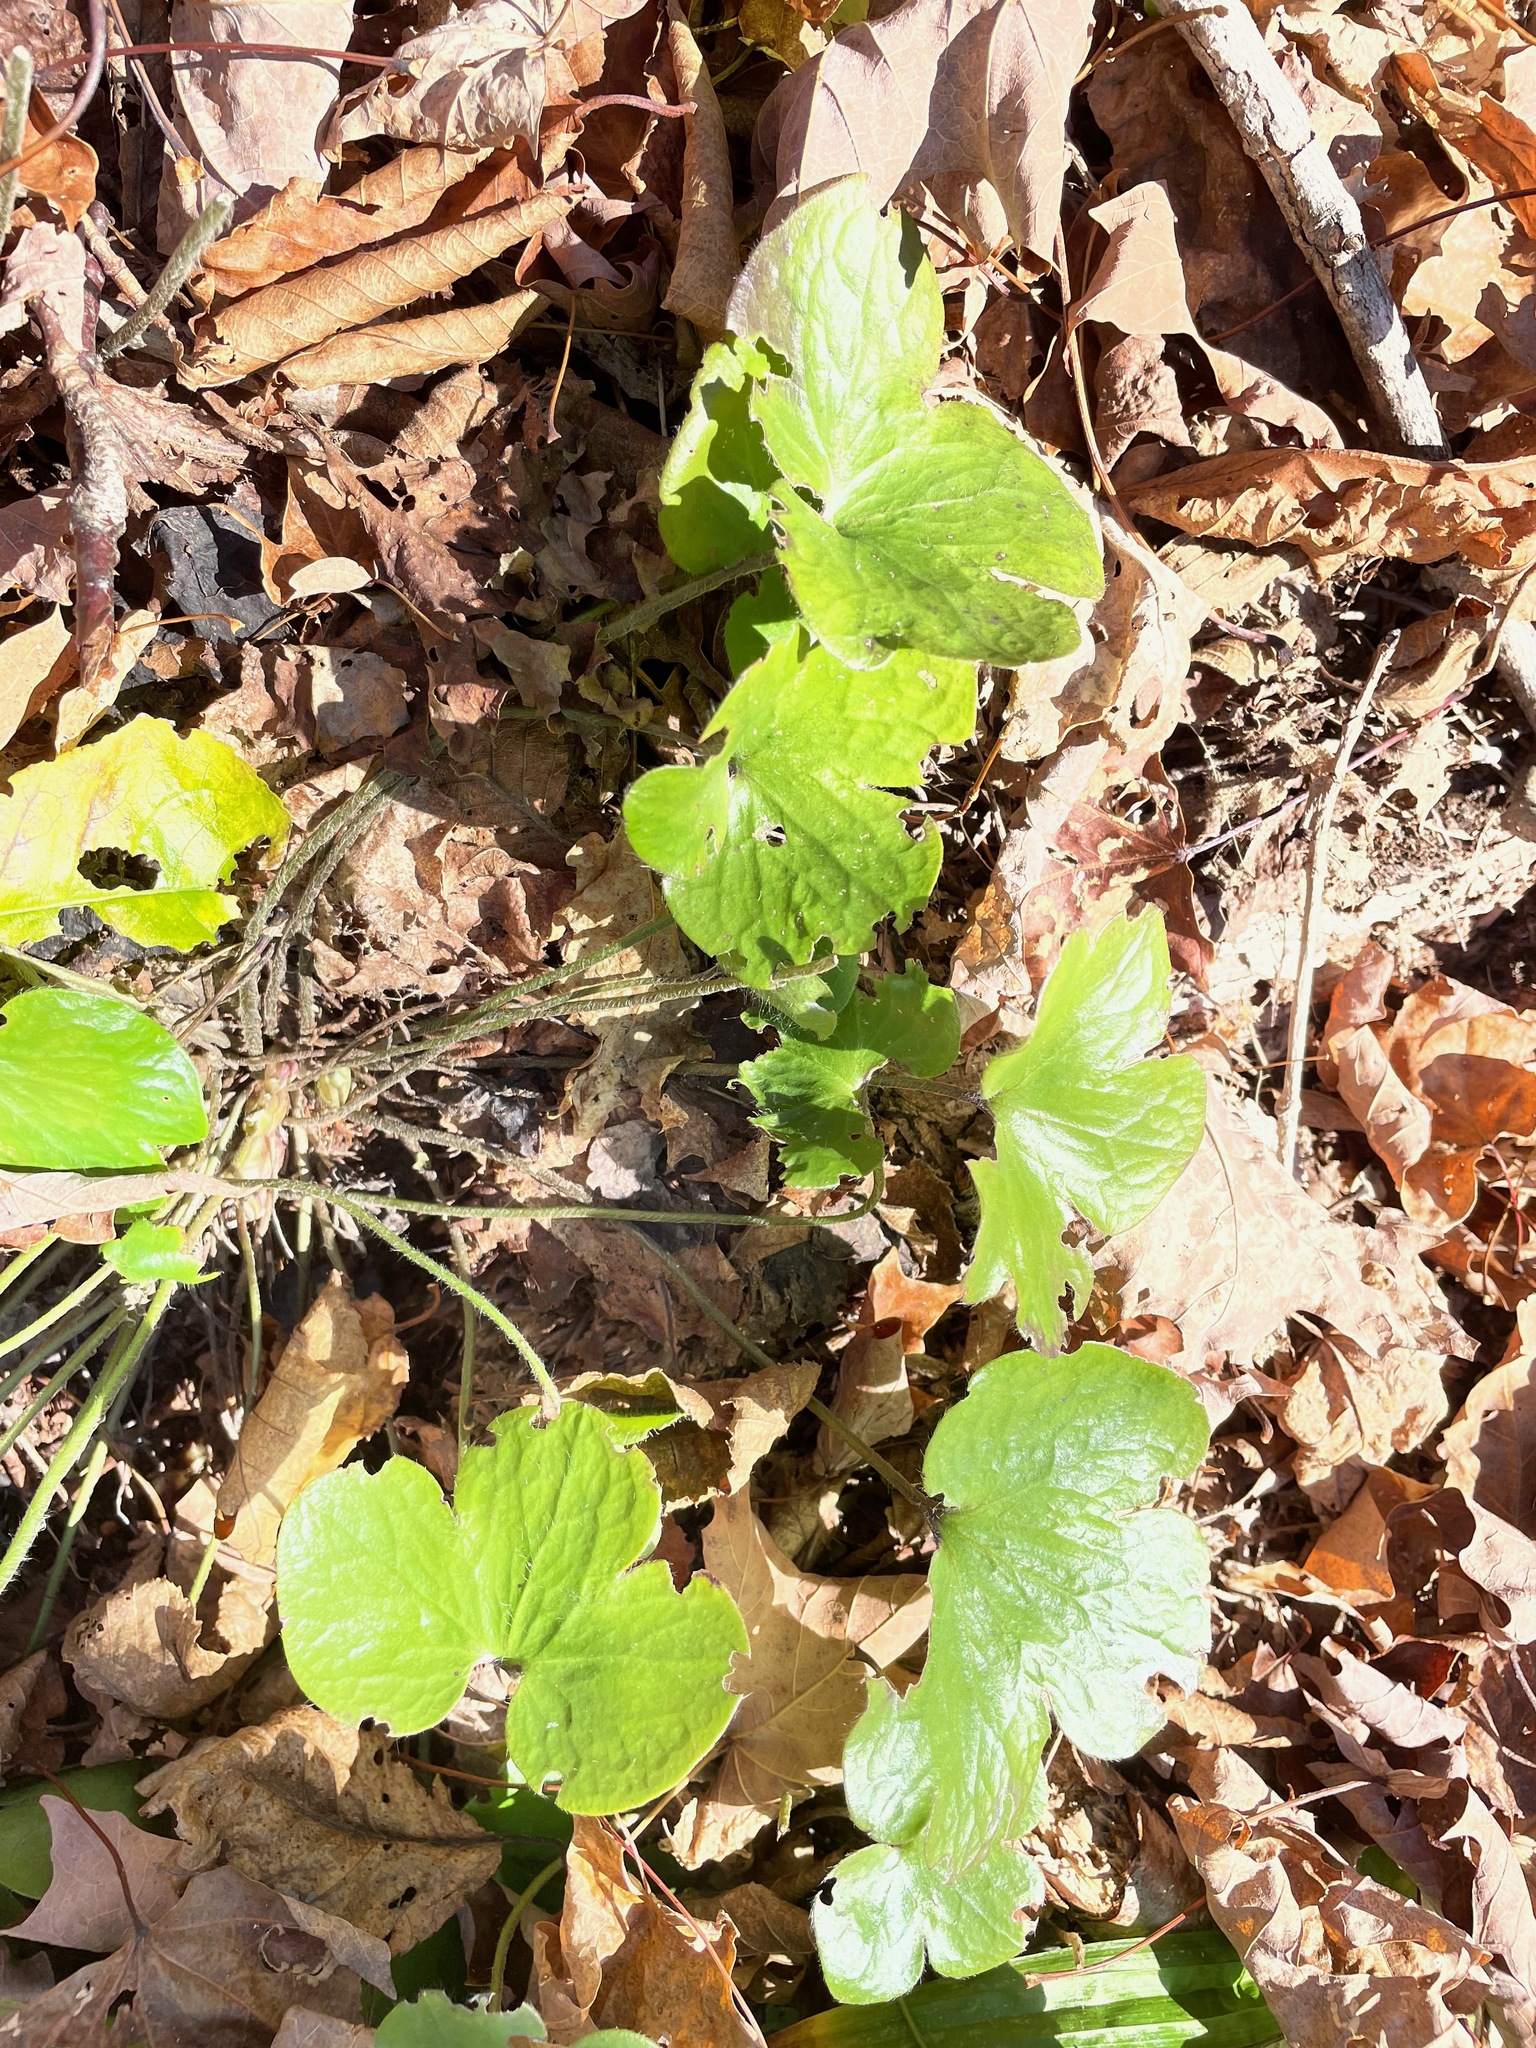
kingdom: Plantae
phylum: Tracheophyta
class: Magnoliopsida
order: Ranunculales
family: Ranunculaceae
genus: Hepatica
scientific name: Hepatica americana
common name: American hepatica
